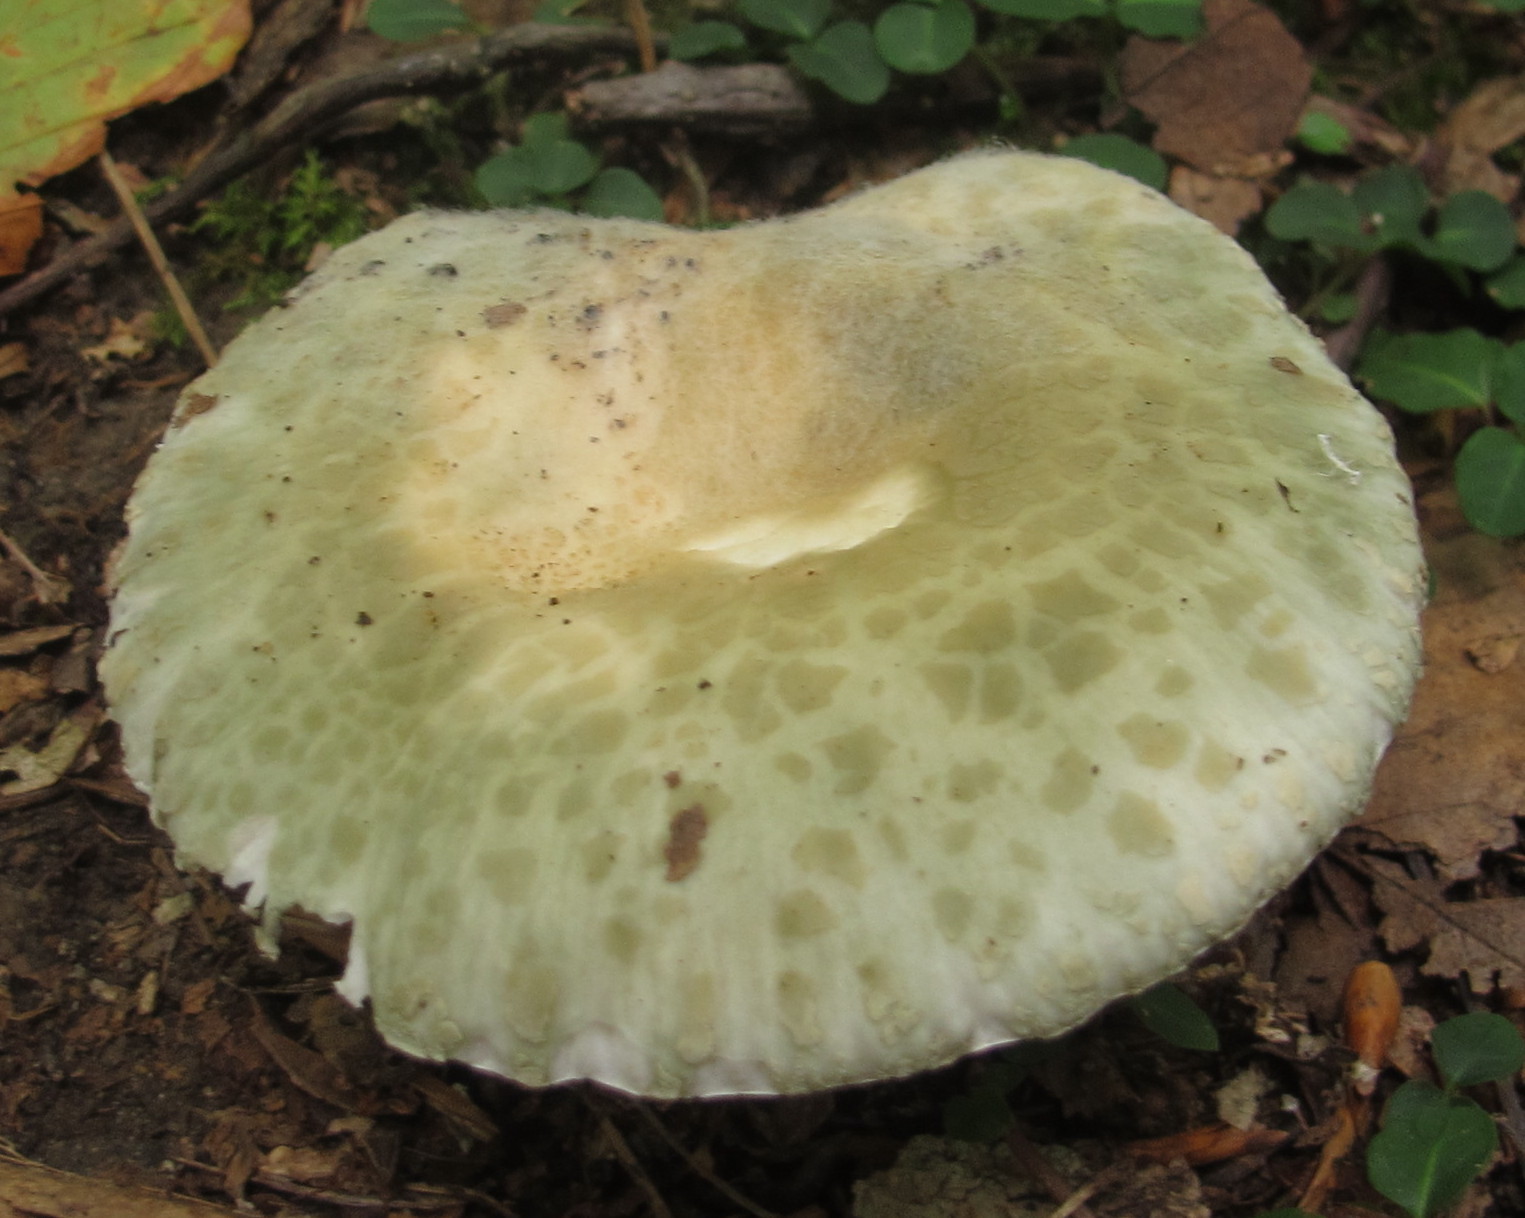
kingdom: Fungi
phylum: Basidiomycota
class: Agaricomycetes
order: Russulales
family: Russulaceae
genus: Russula
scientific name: Russula parvovirescens
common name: Blue-green cracking russula
